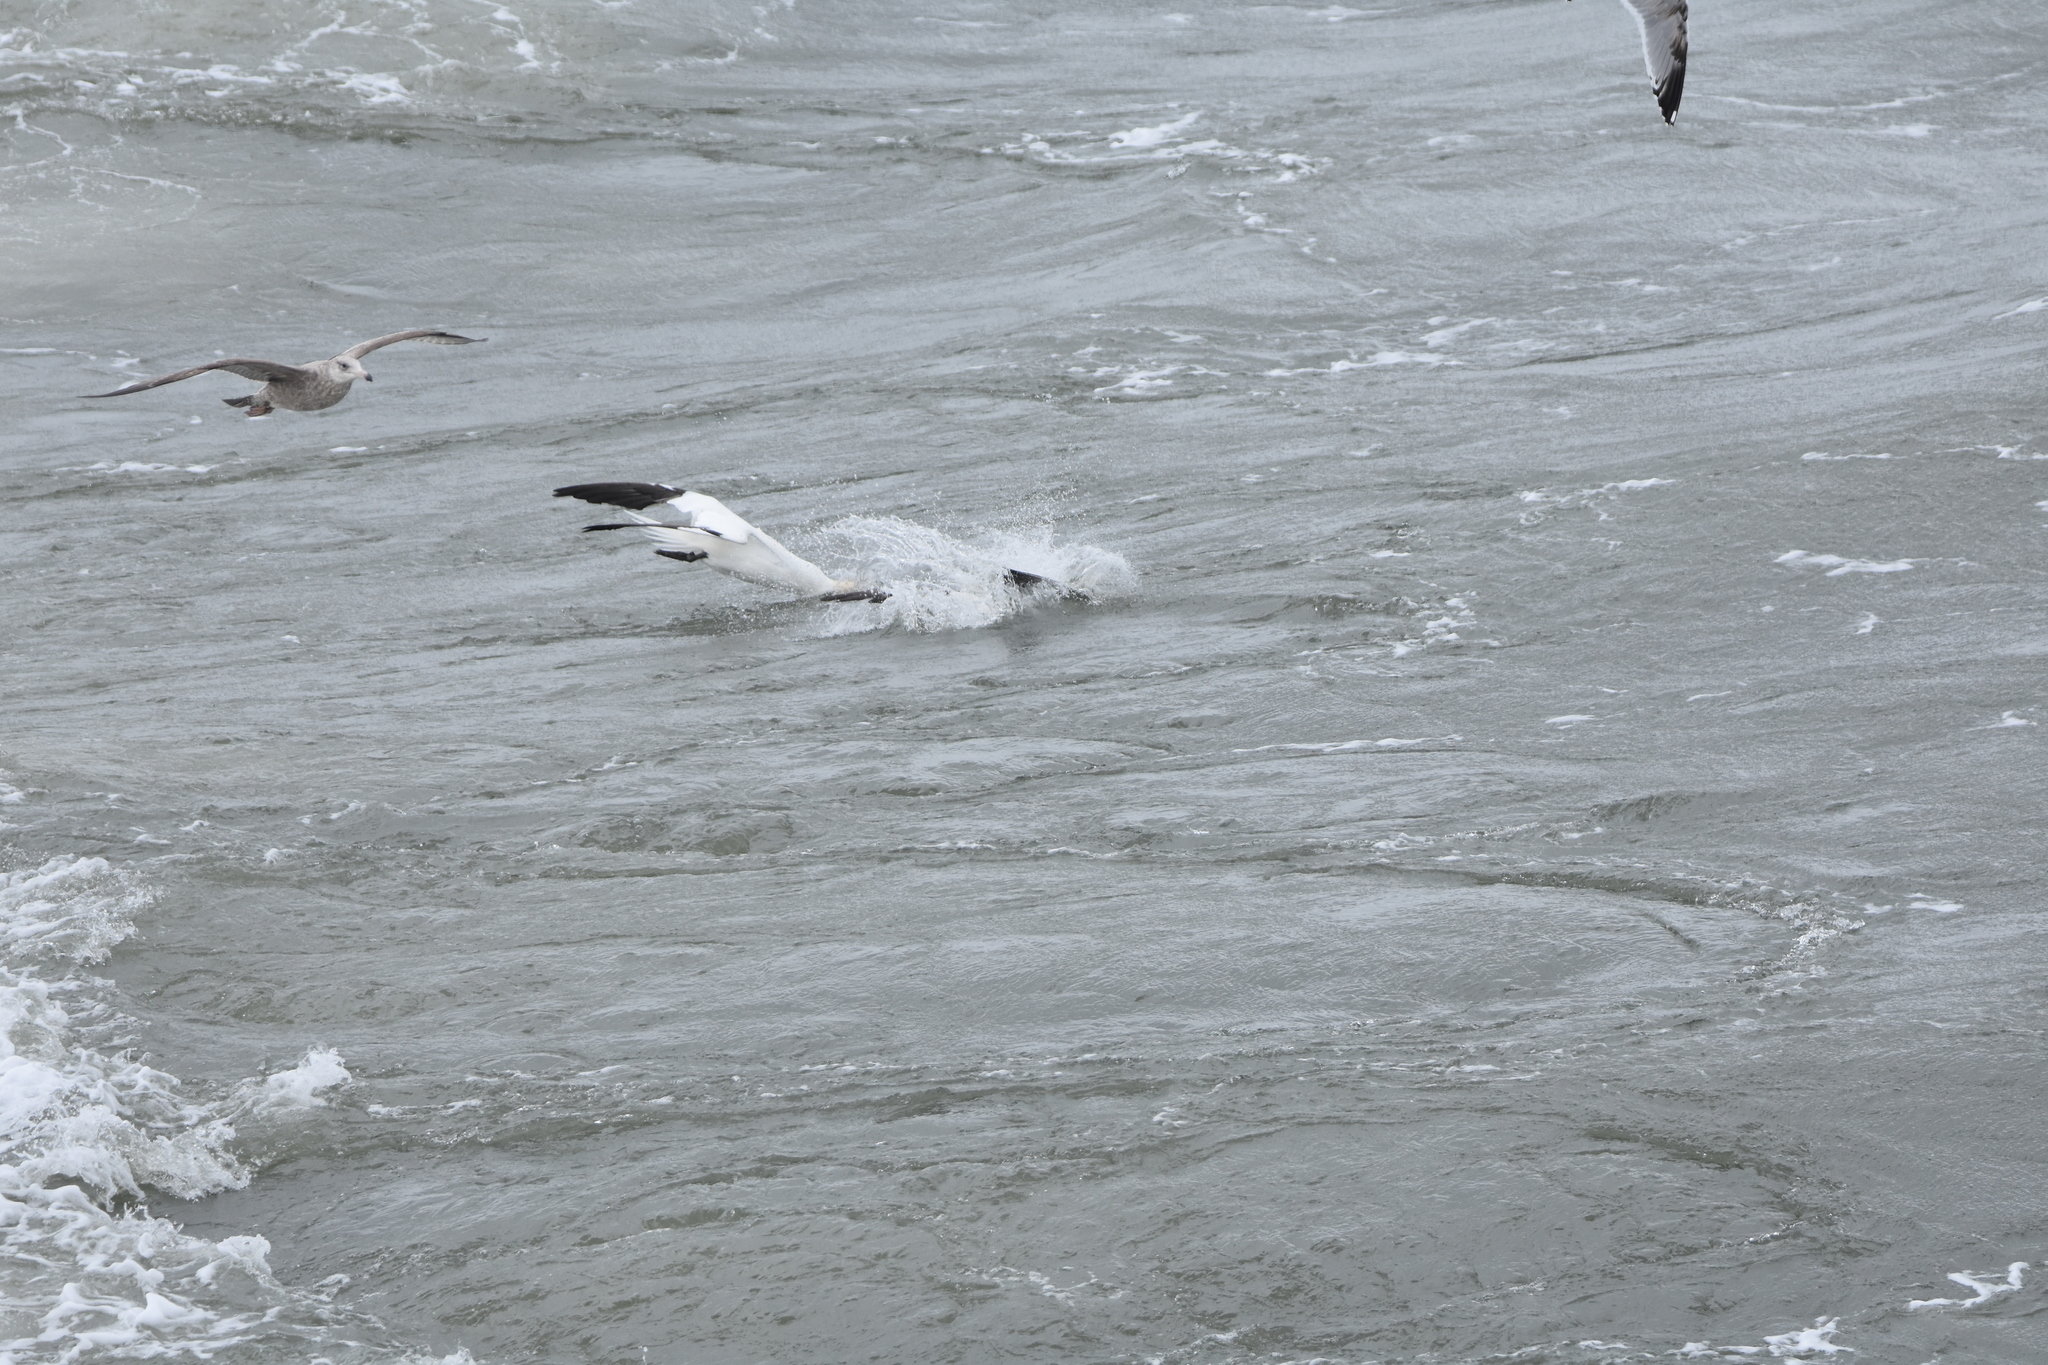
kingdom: Animalia
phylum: Chordata
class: Aves
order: Suliformes
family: Sulidae
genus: Morus
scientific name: Morus bassanus
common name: Northern gannet
